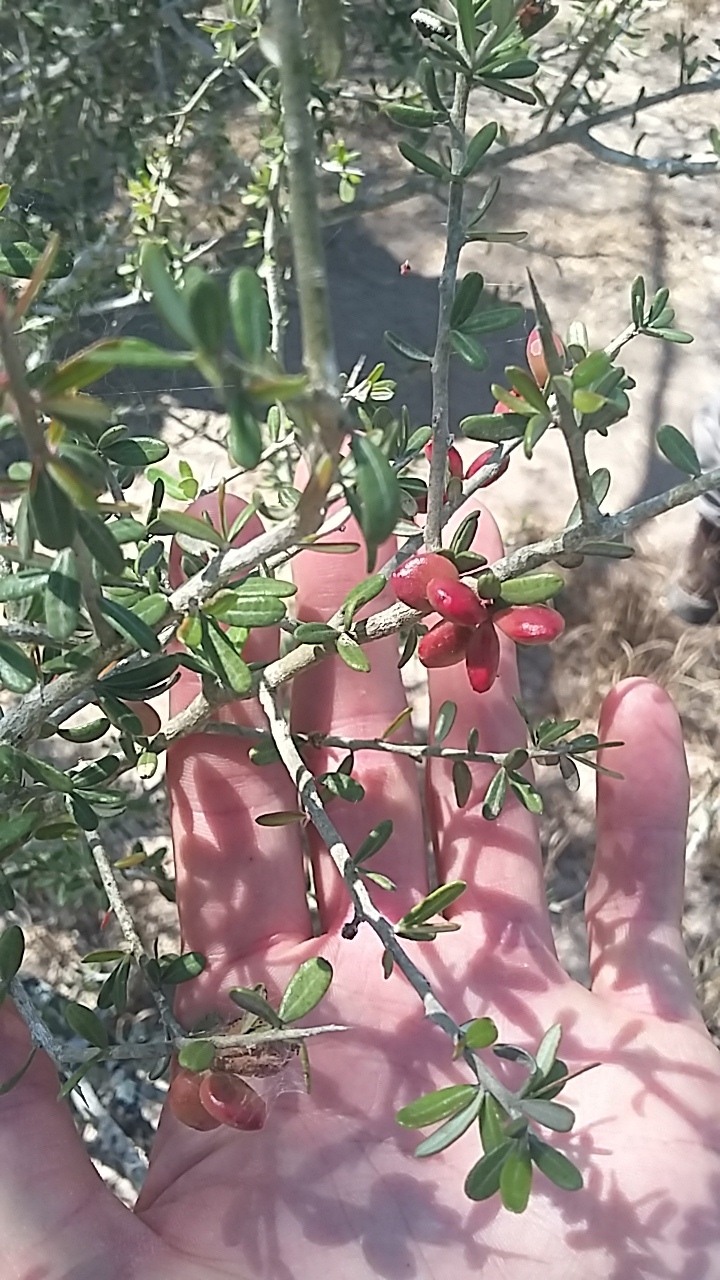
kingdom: Plantae
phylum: Tracheophyta
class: Magnoliopsida
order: Sapindales
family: Simaroubaceae
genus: Castela
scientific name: Castela erecta
